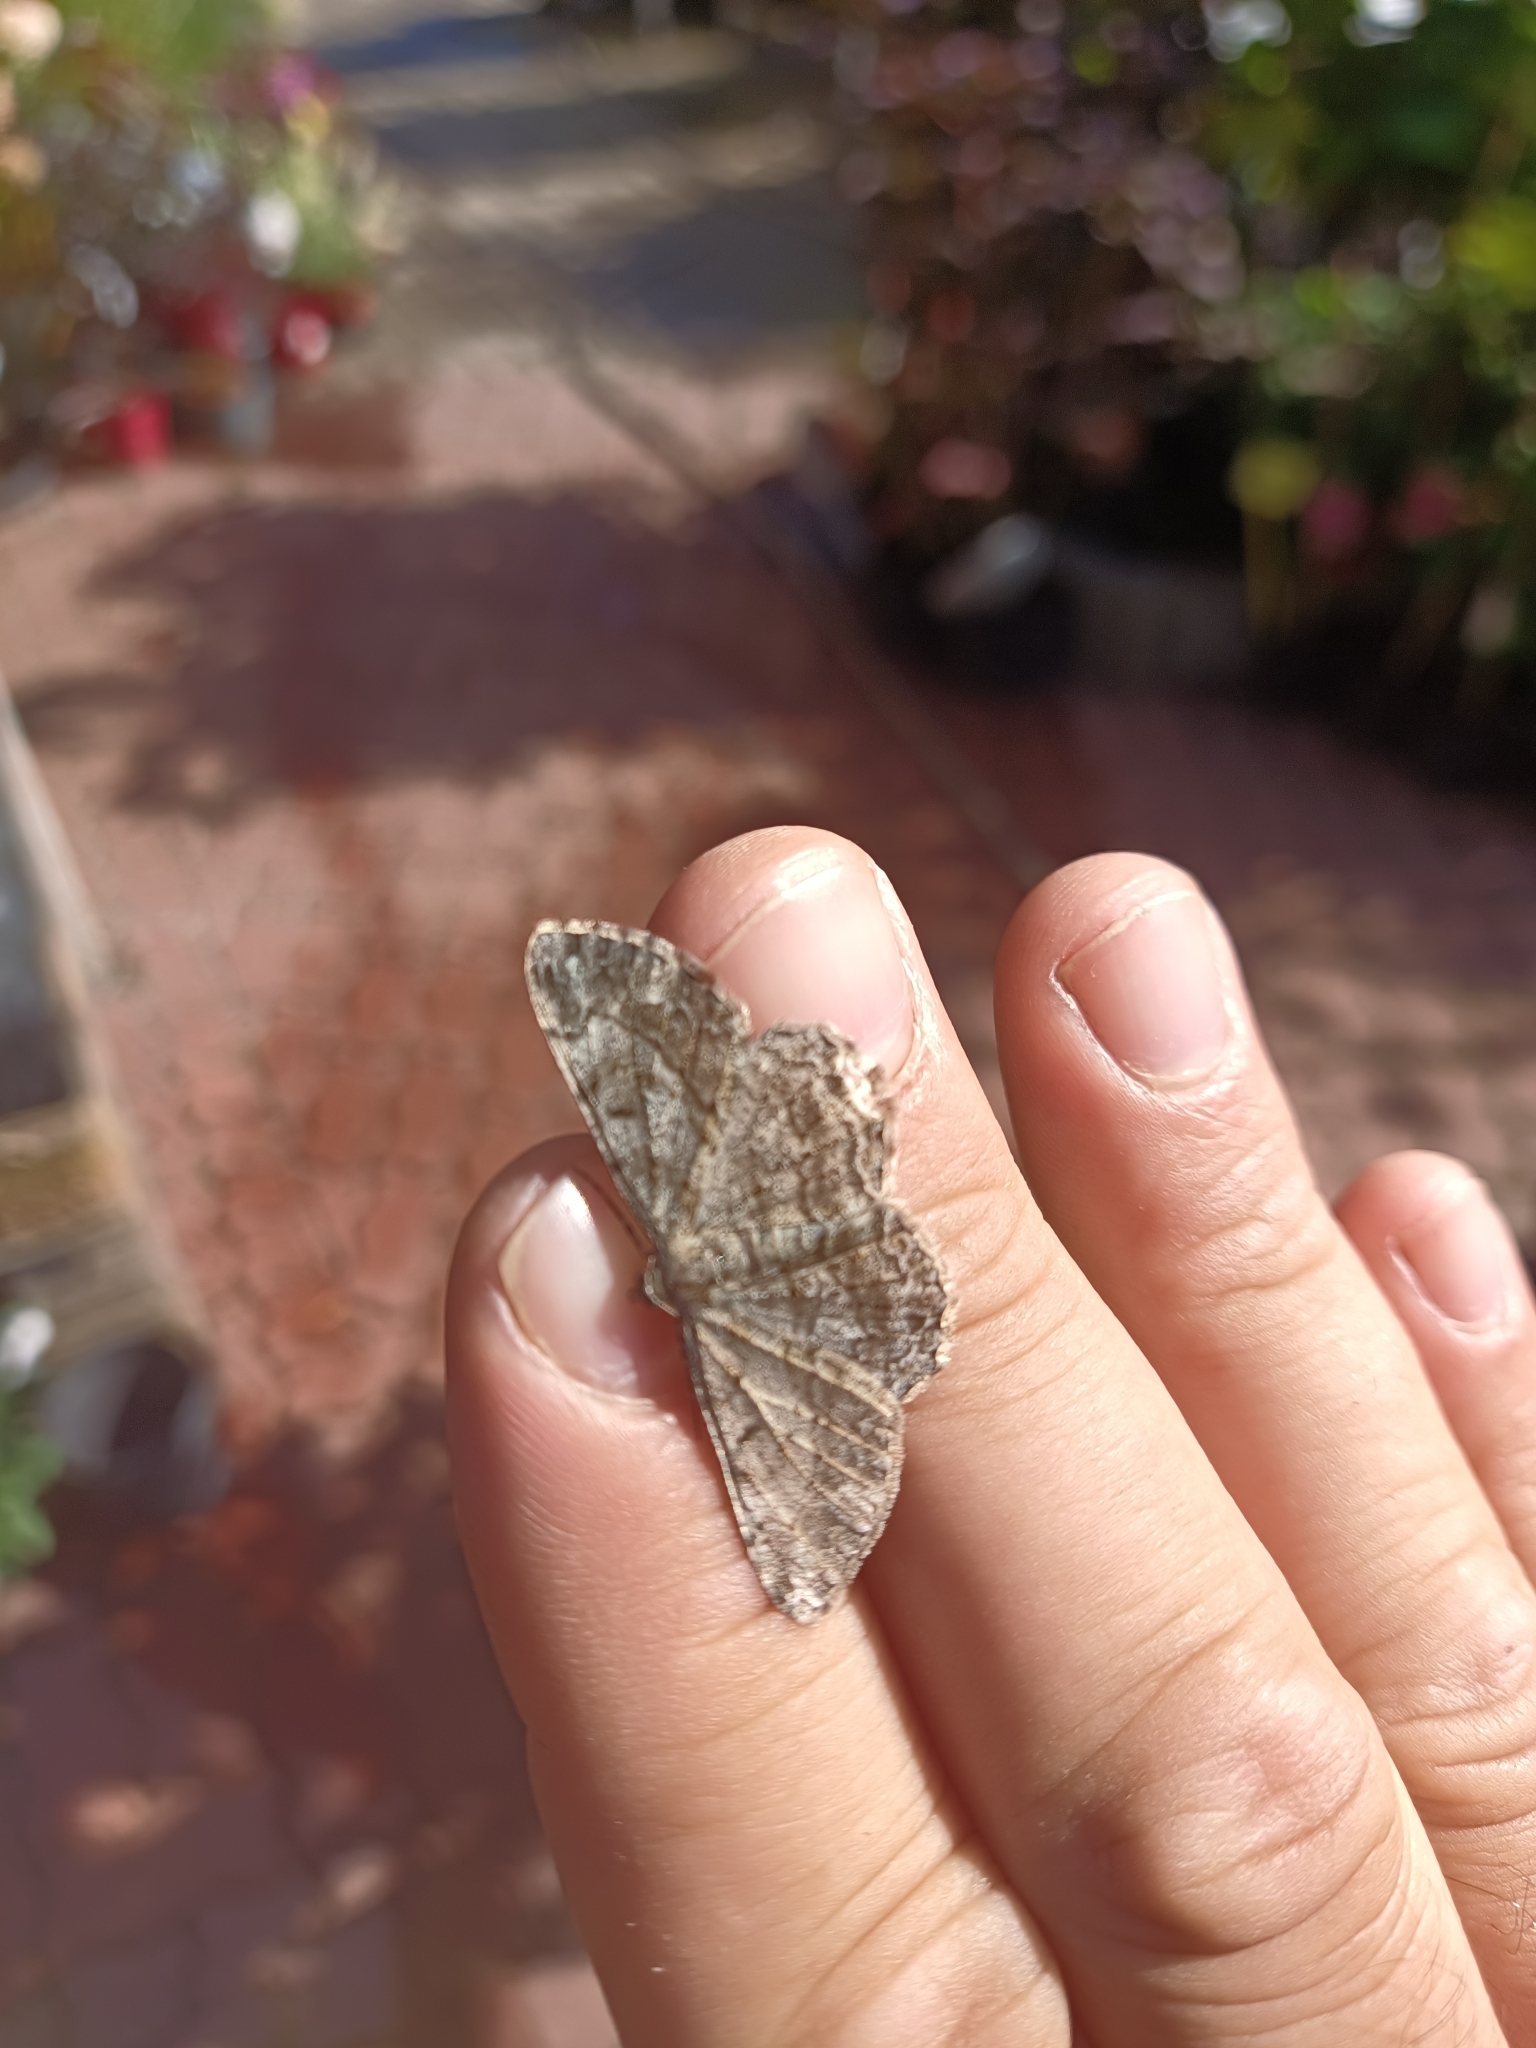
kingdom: Animalia
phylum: Arthropoda
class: Insecta
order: Lepidoptera
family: Geometridae
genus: Peribatodes
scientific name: Peribatodes rhomboidaria
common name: Willow beauty
